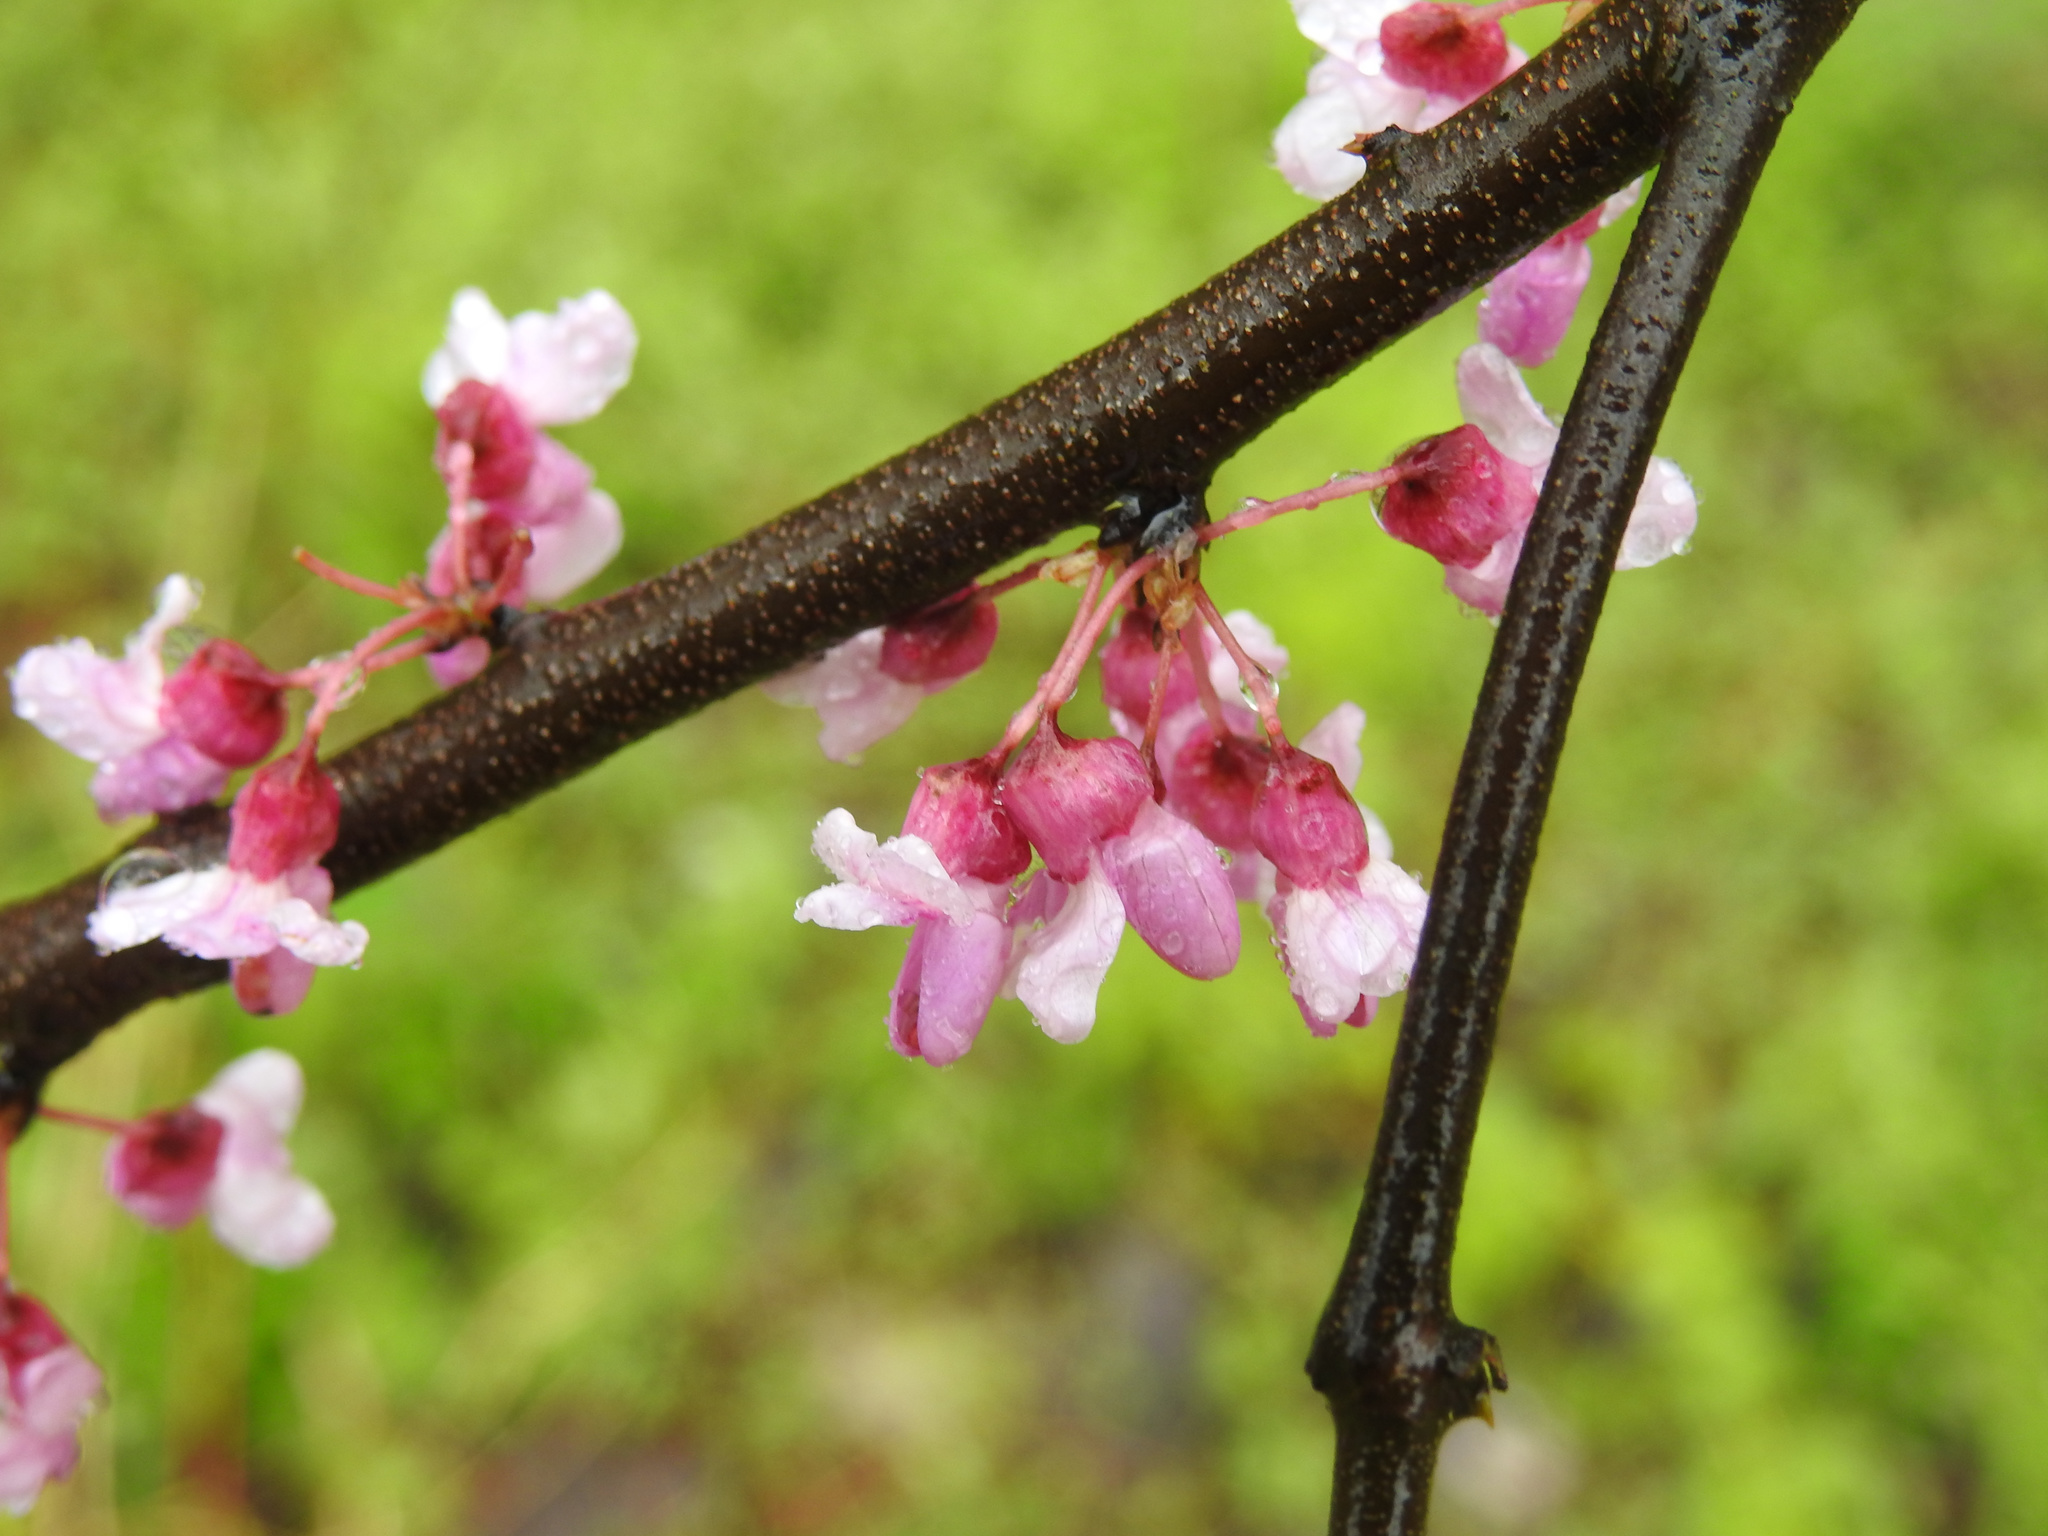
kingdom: Plantae
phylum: Tracheophyta
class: Magnoliopsida
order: Fabales
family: Fabaceae
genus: Cercis
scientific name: Cercis canadensis
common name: Eastern redbud
